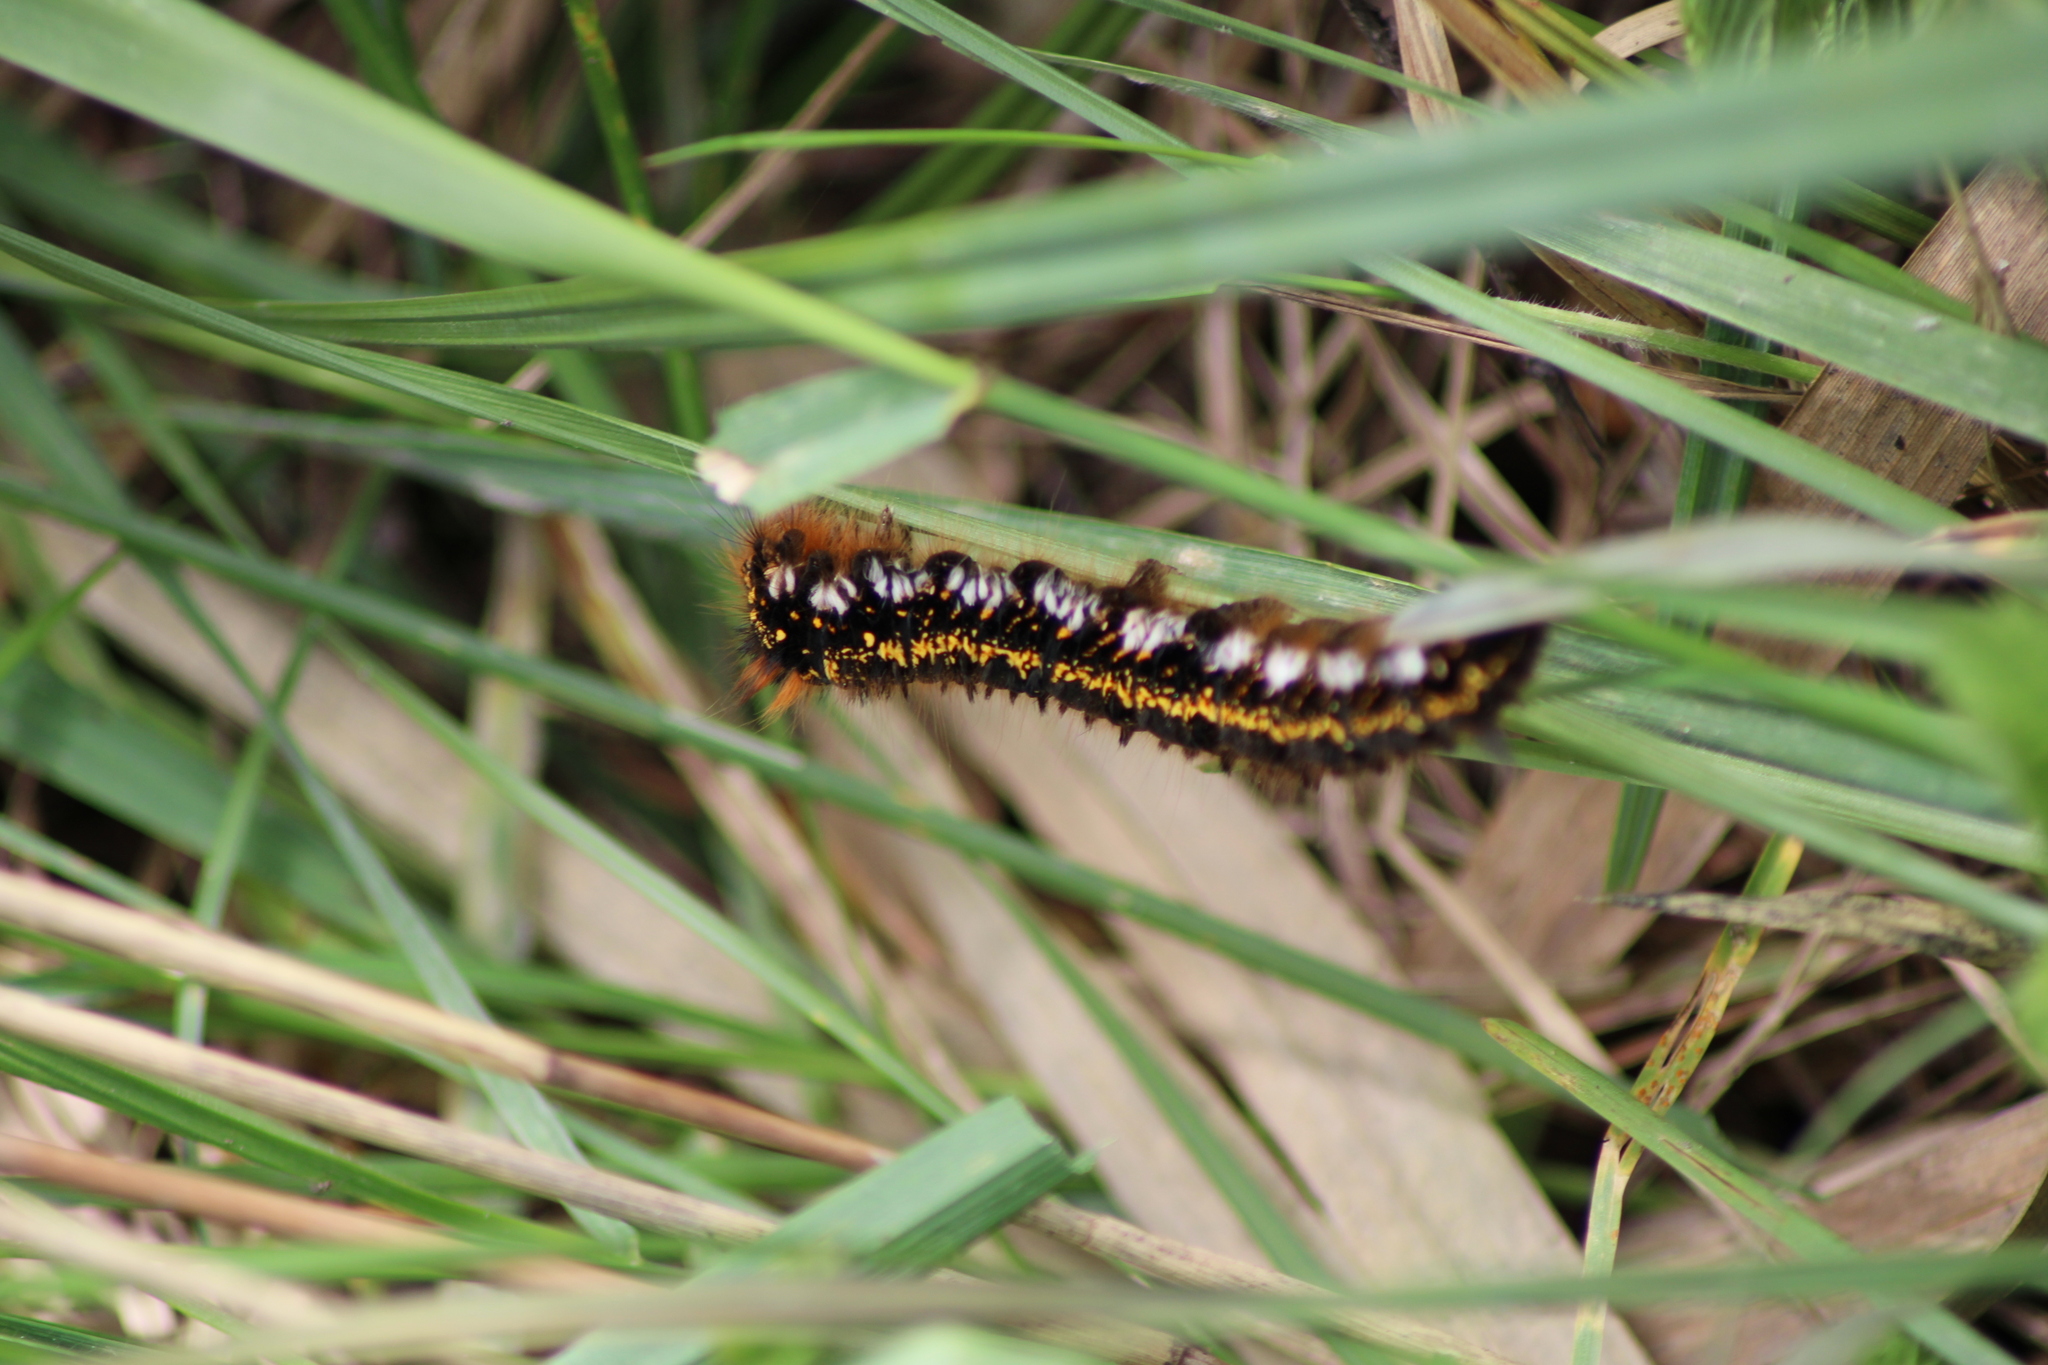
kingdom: Animalia
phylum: Arthropoda
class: Insecta
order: Lepidoptera
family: Lasiocampidae
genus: Euthrix
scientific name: Euthrix potatoria
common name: Drinker
